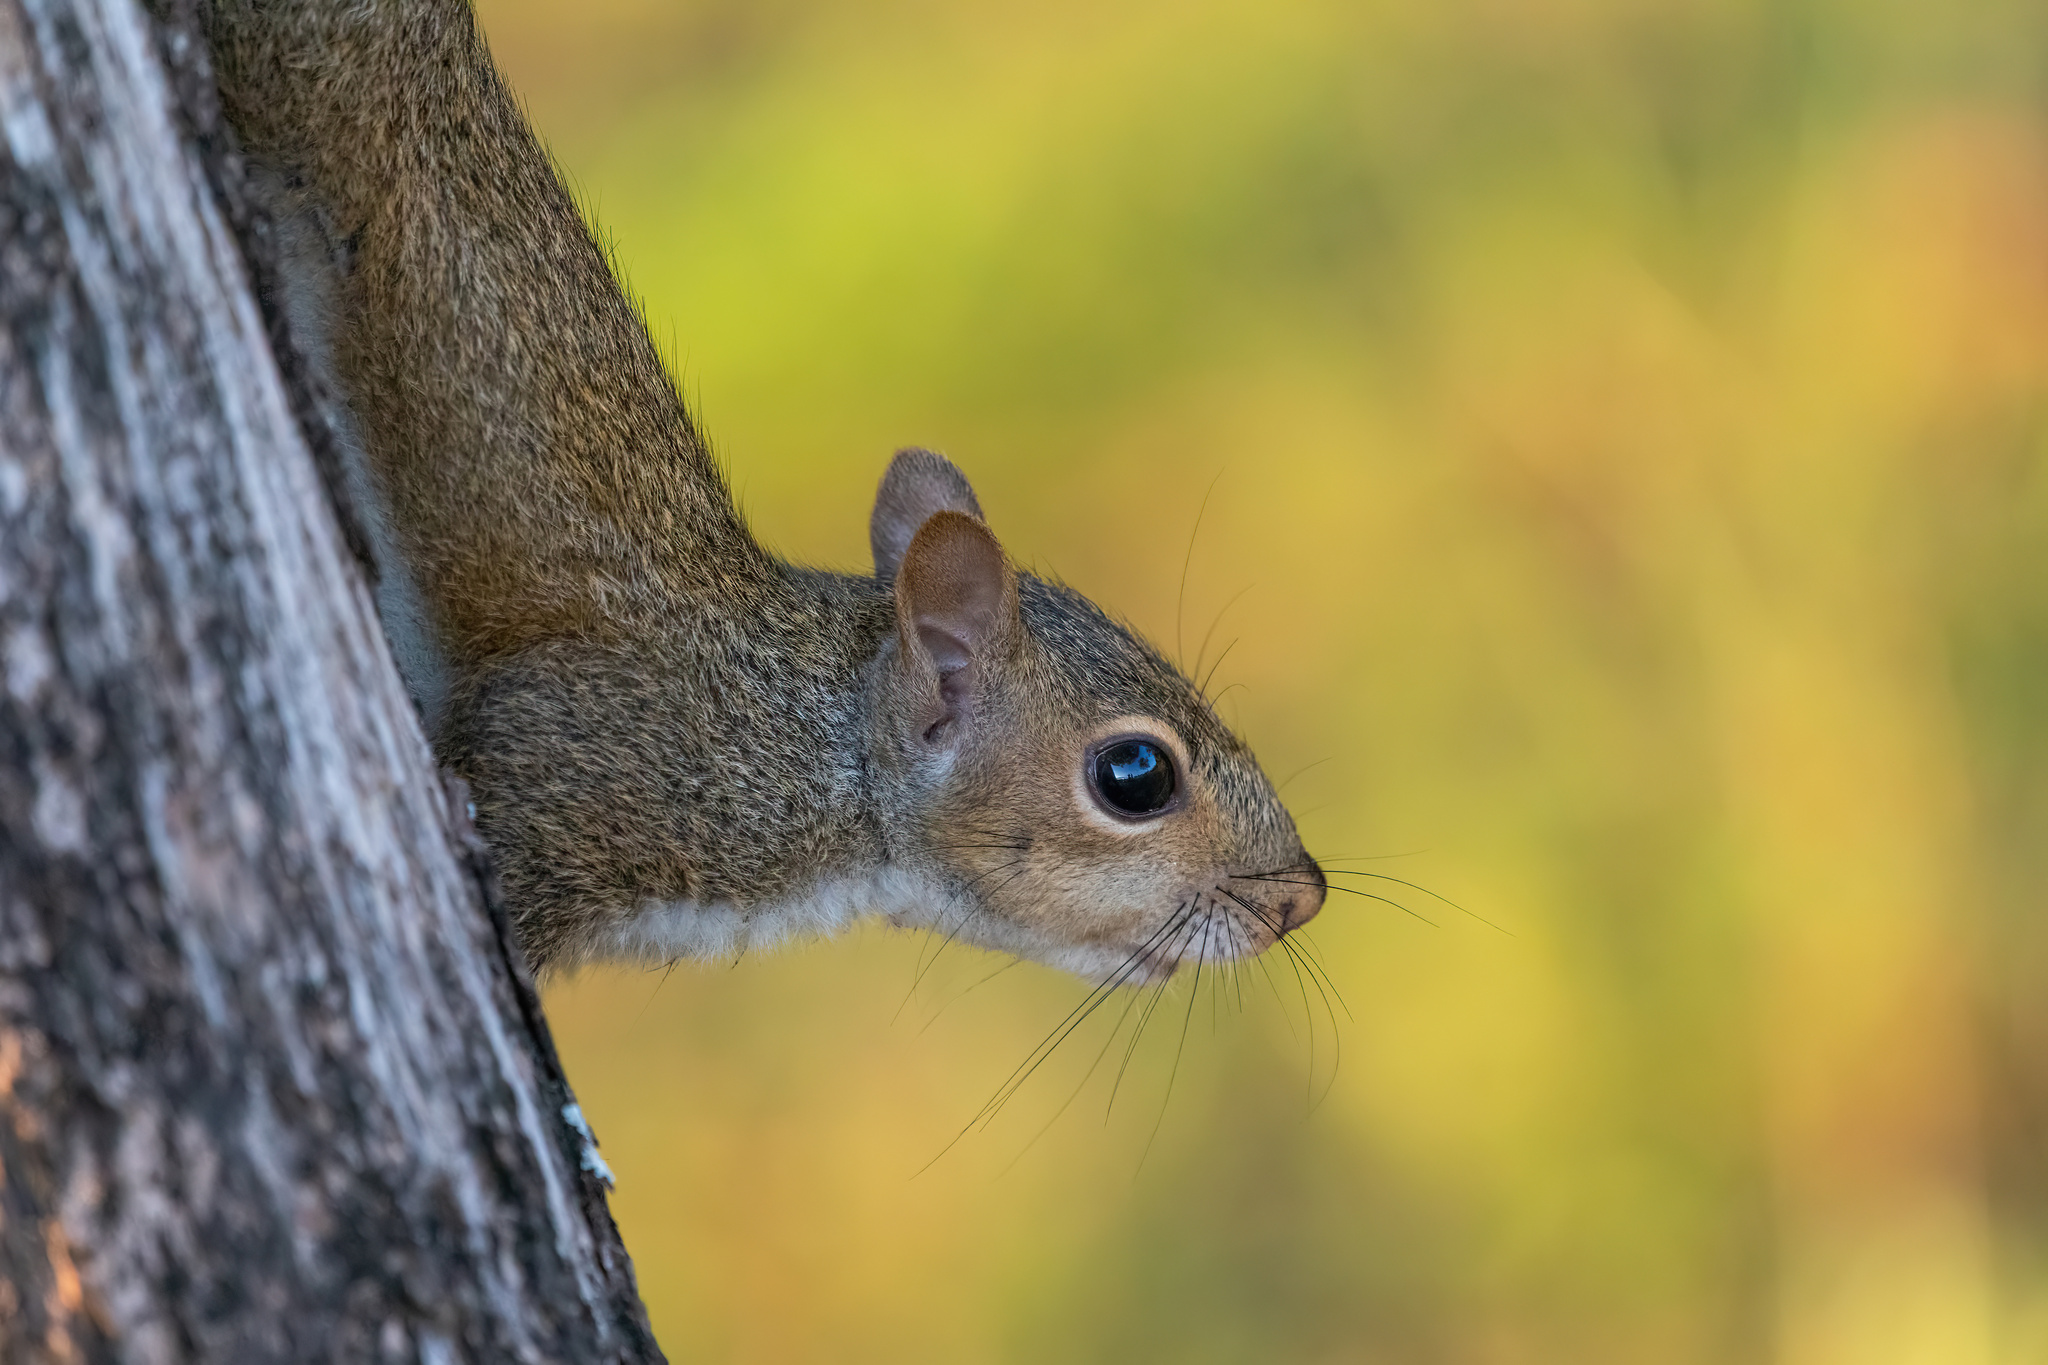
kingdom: Animalia
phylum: Chordata
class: Mammalia
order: Rodentia
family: Sciuridae
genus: Sciurus
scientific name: Sciurus carolinensis
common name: Eastern gray squirrel
